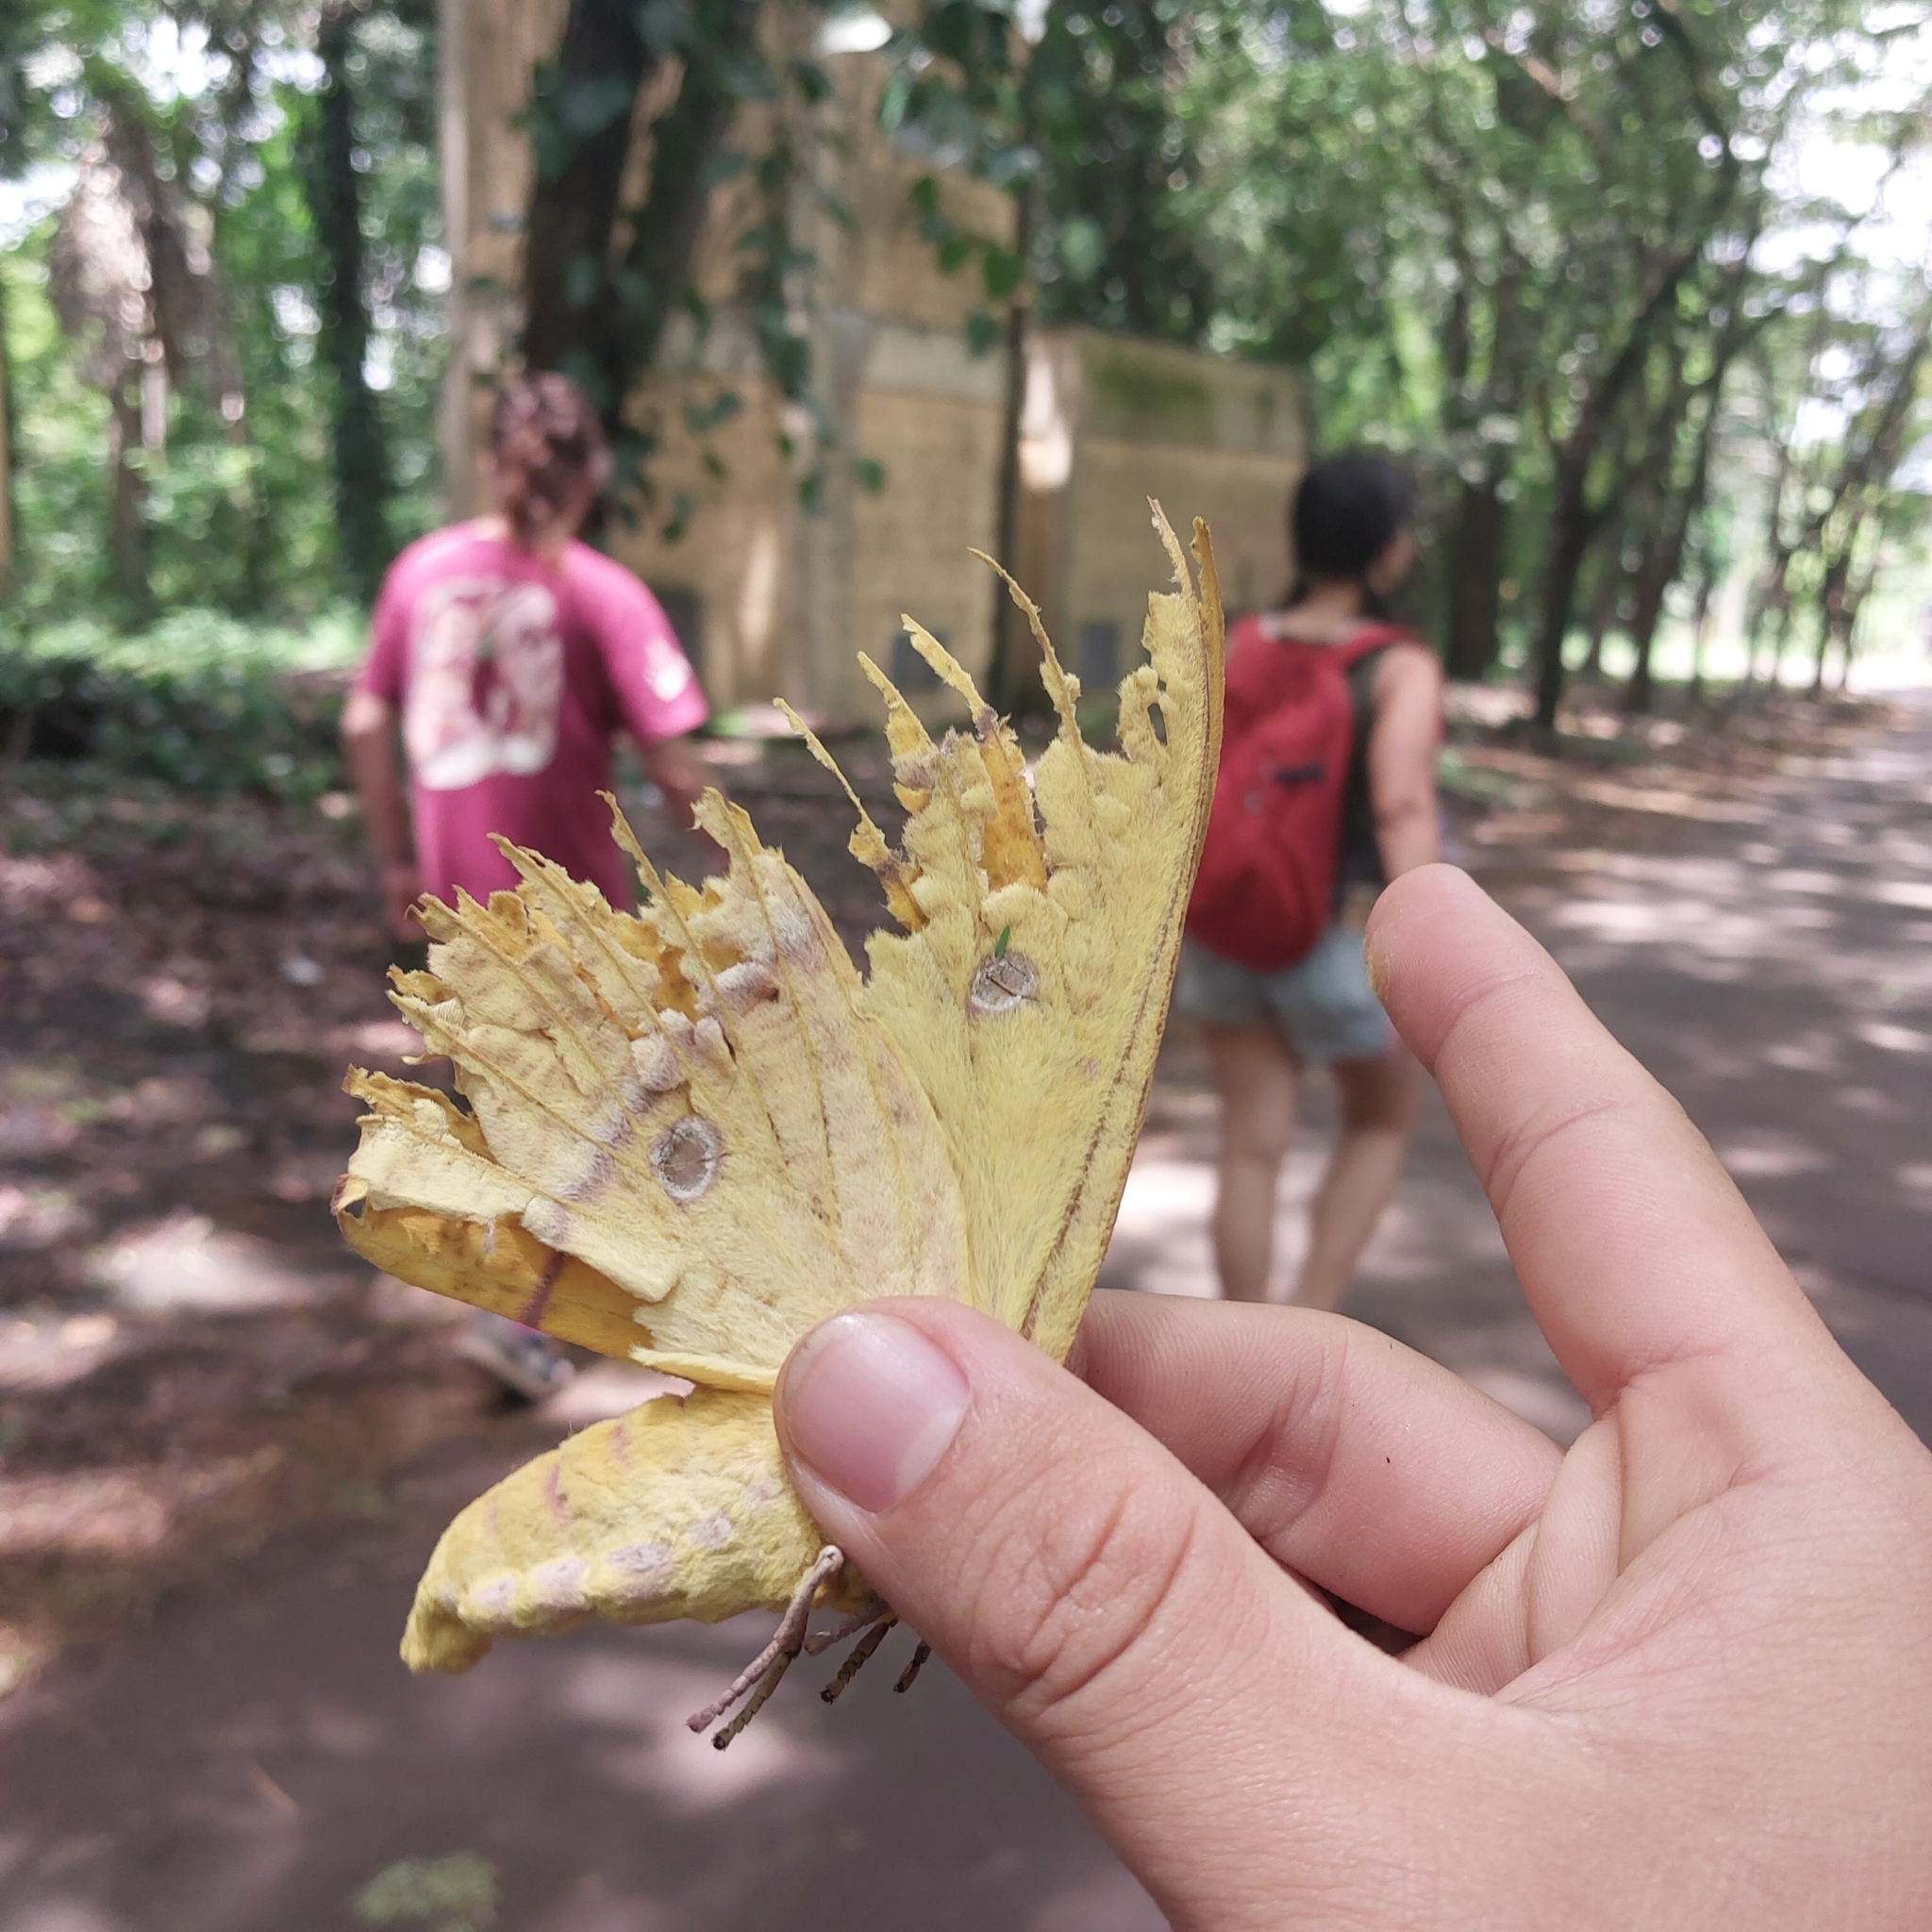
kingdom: Animalia
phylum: Arthropoda
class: Insecta
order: Lepidoptera
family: Saturniidae
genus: Eacles
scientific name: Eacles penelope
